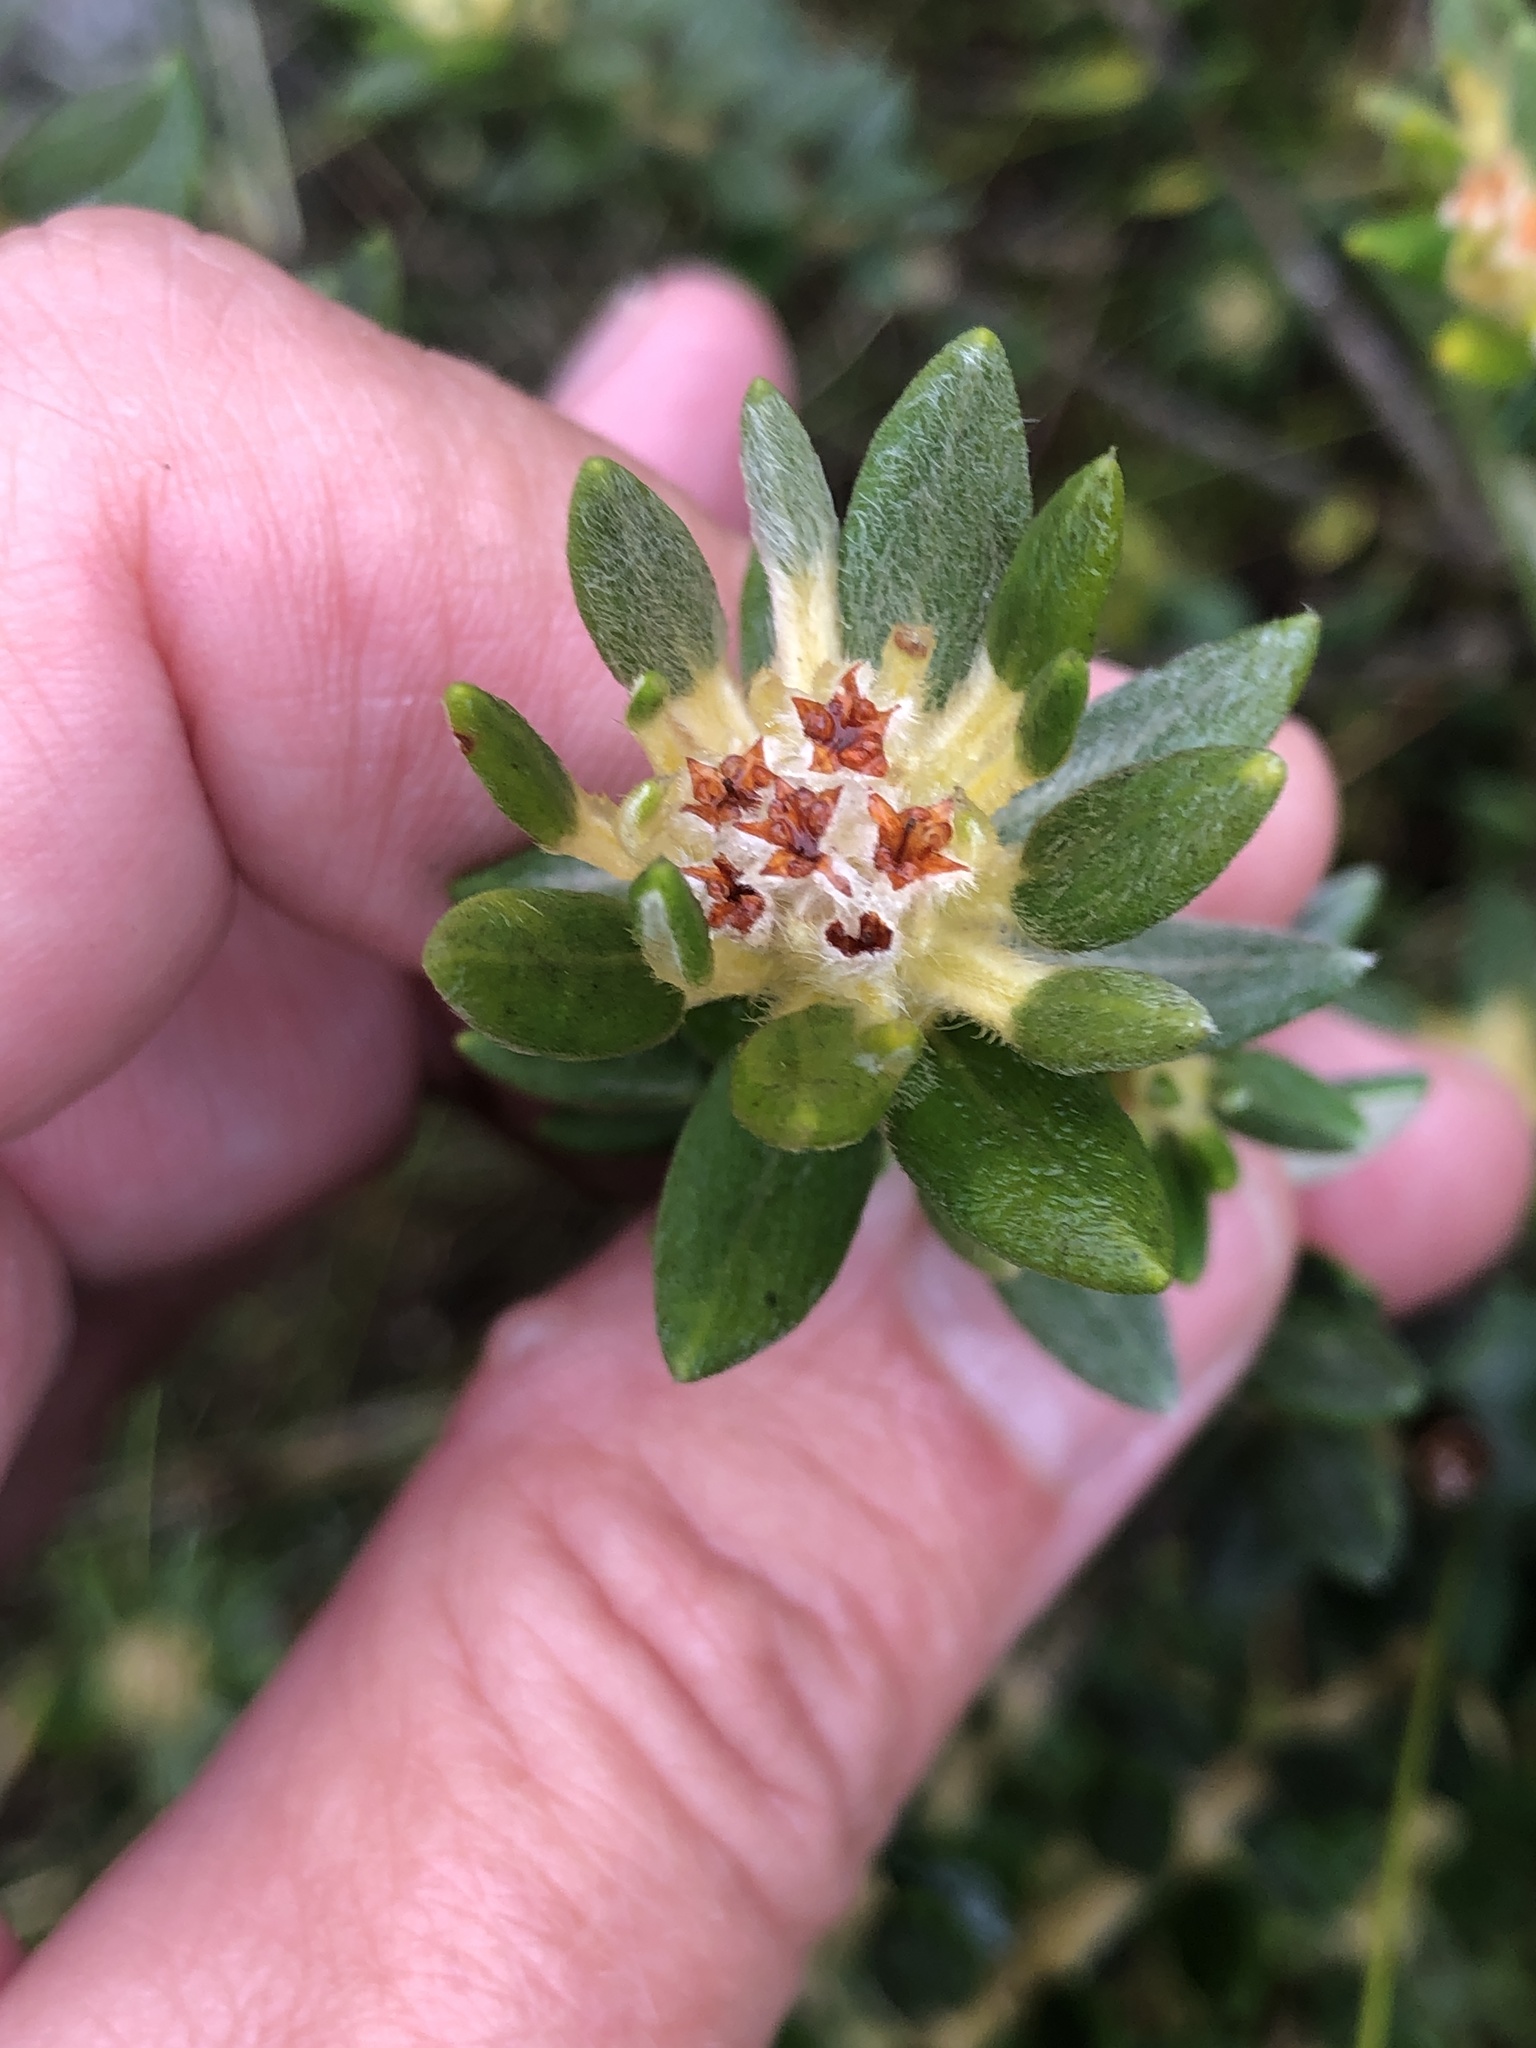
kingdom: Plantae
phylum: Tracheophyta
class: Magnoliopsida
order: Rosales
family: Rhamnaceae
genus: Phylica
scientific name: Phylica dioica
